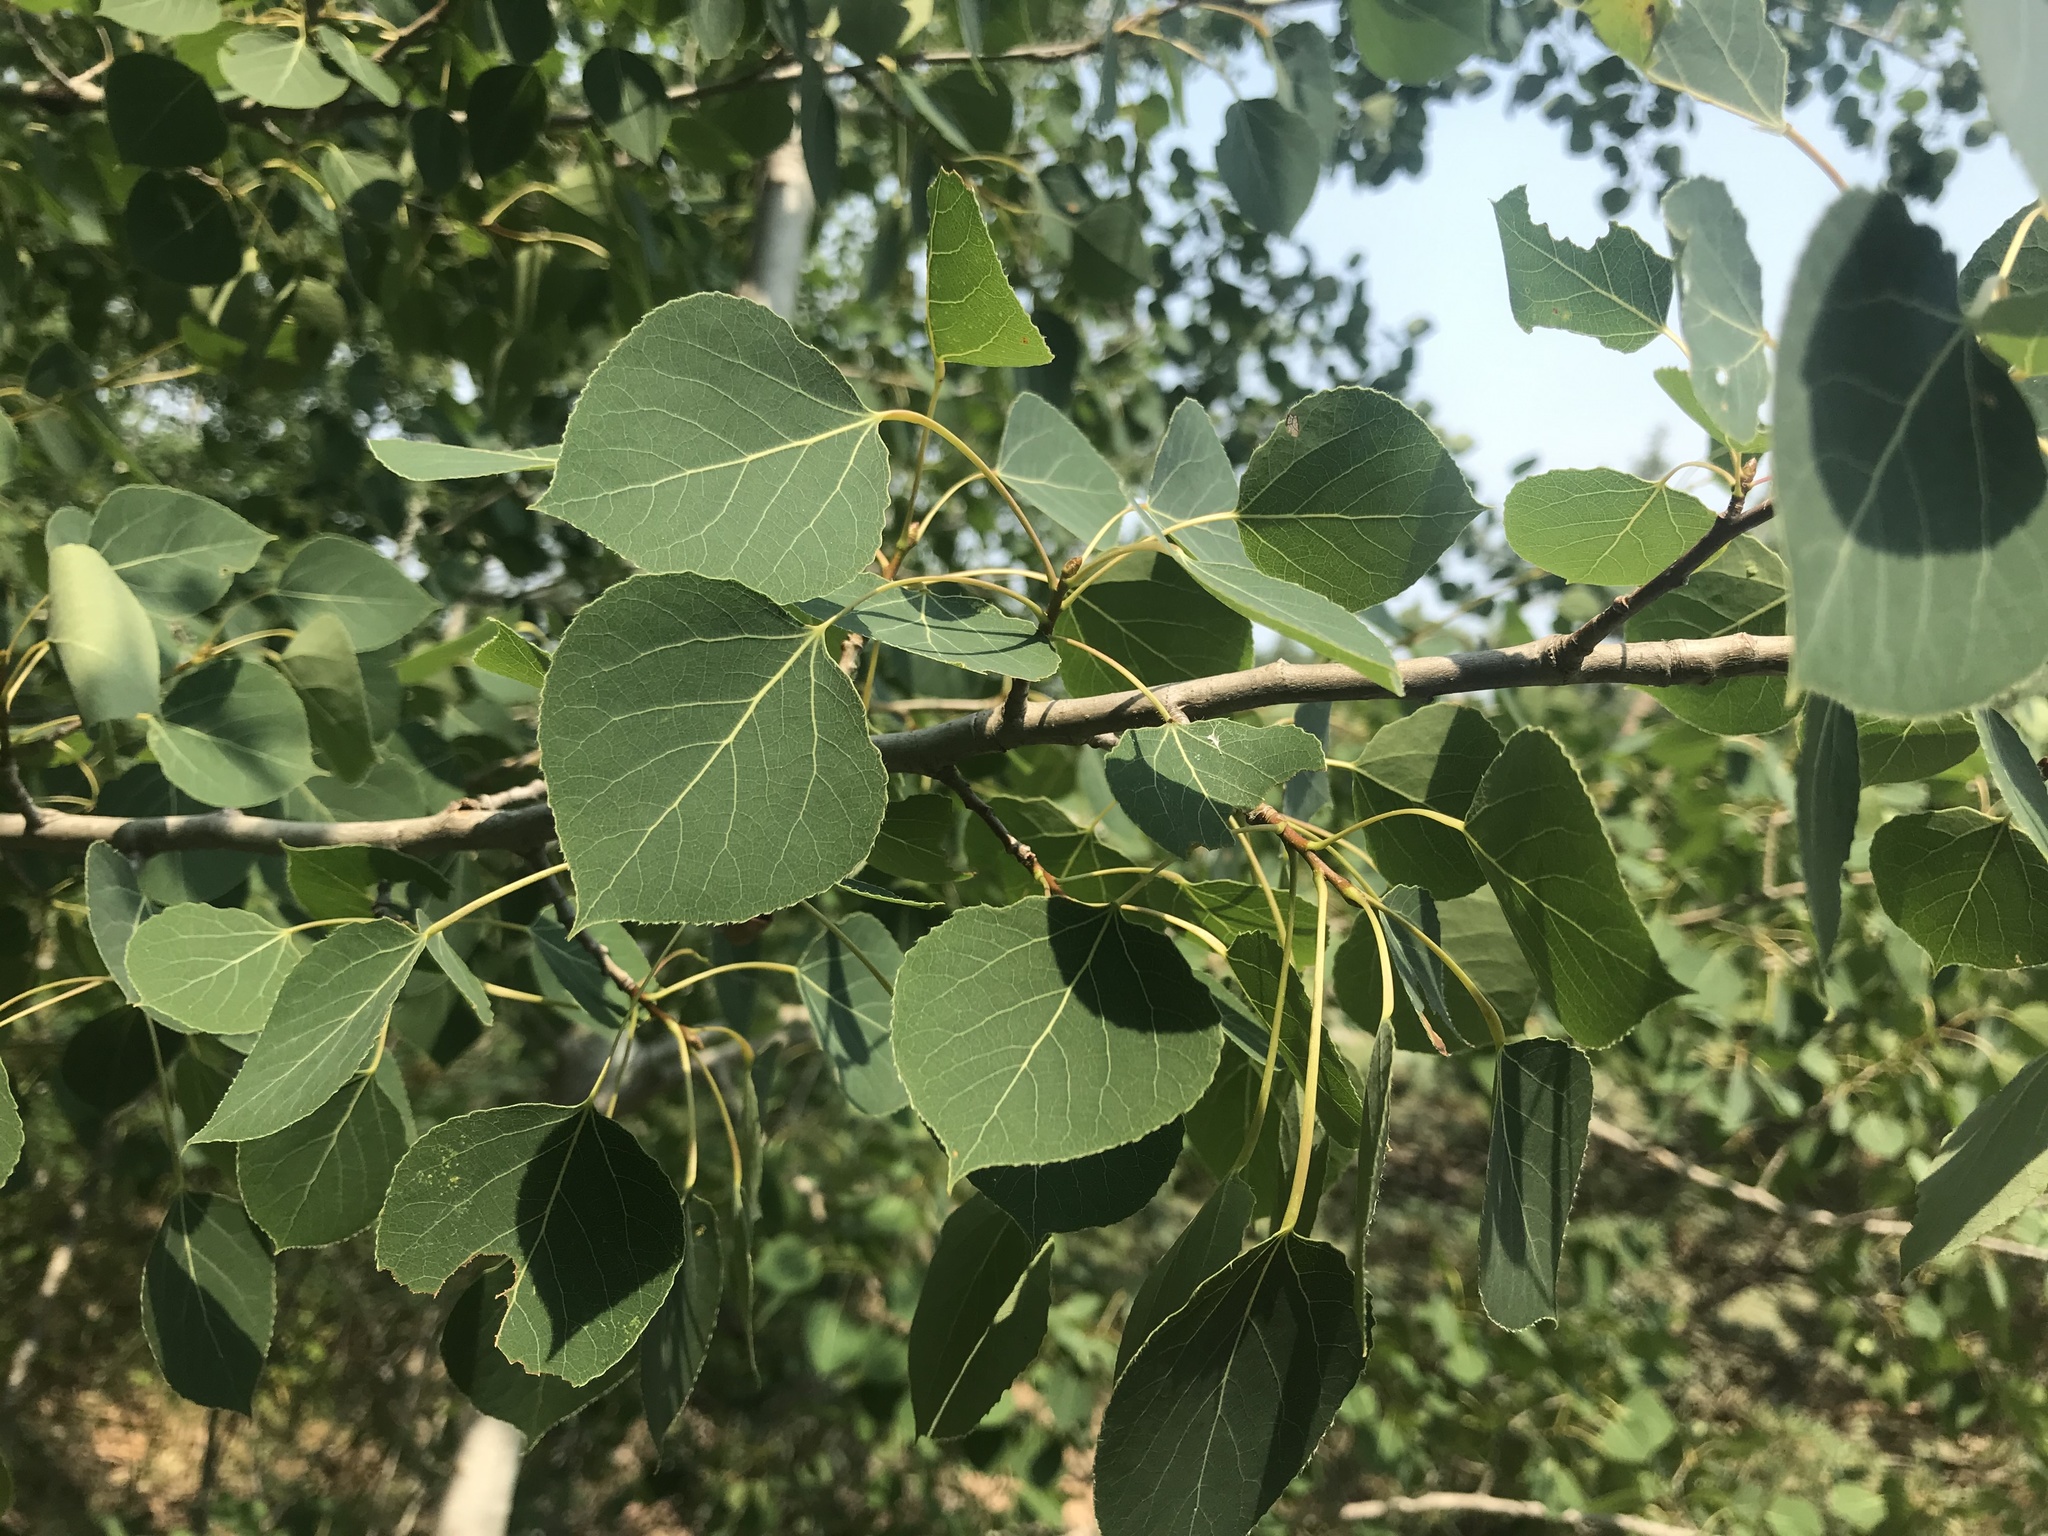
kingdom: Plantae
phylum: Tracheophyta
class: Magnoliopsida
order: Malpighiales
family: Salicaceae
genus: Populus
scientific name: Populus tremuloides
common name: Quaking aspen
